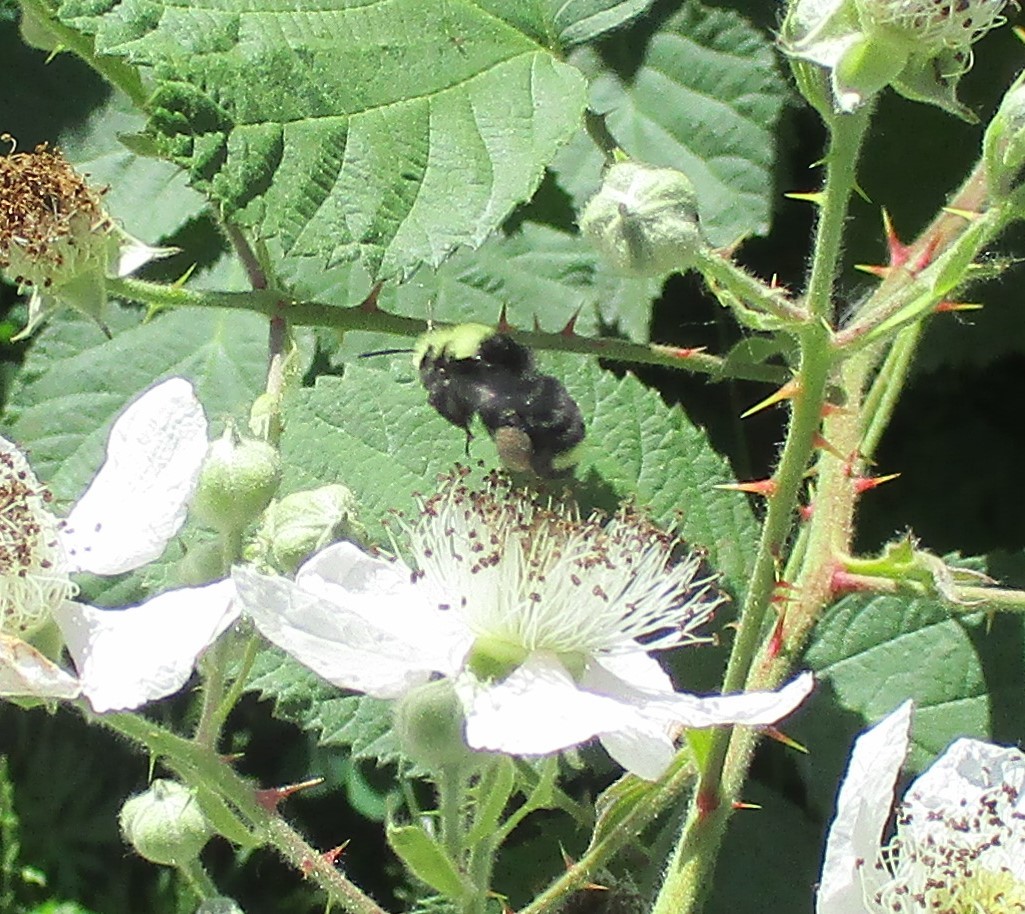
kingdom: Animalia
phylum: Arthropoda
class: Insecta
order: Hymenoptera
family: Apidae
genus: Bombus
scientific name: Bombus vosnesenskii
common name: Vosnesensky bumble bee
